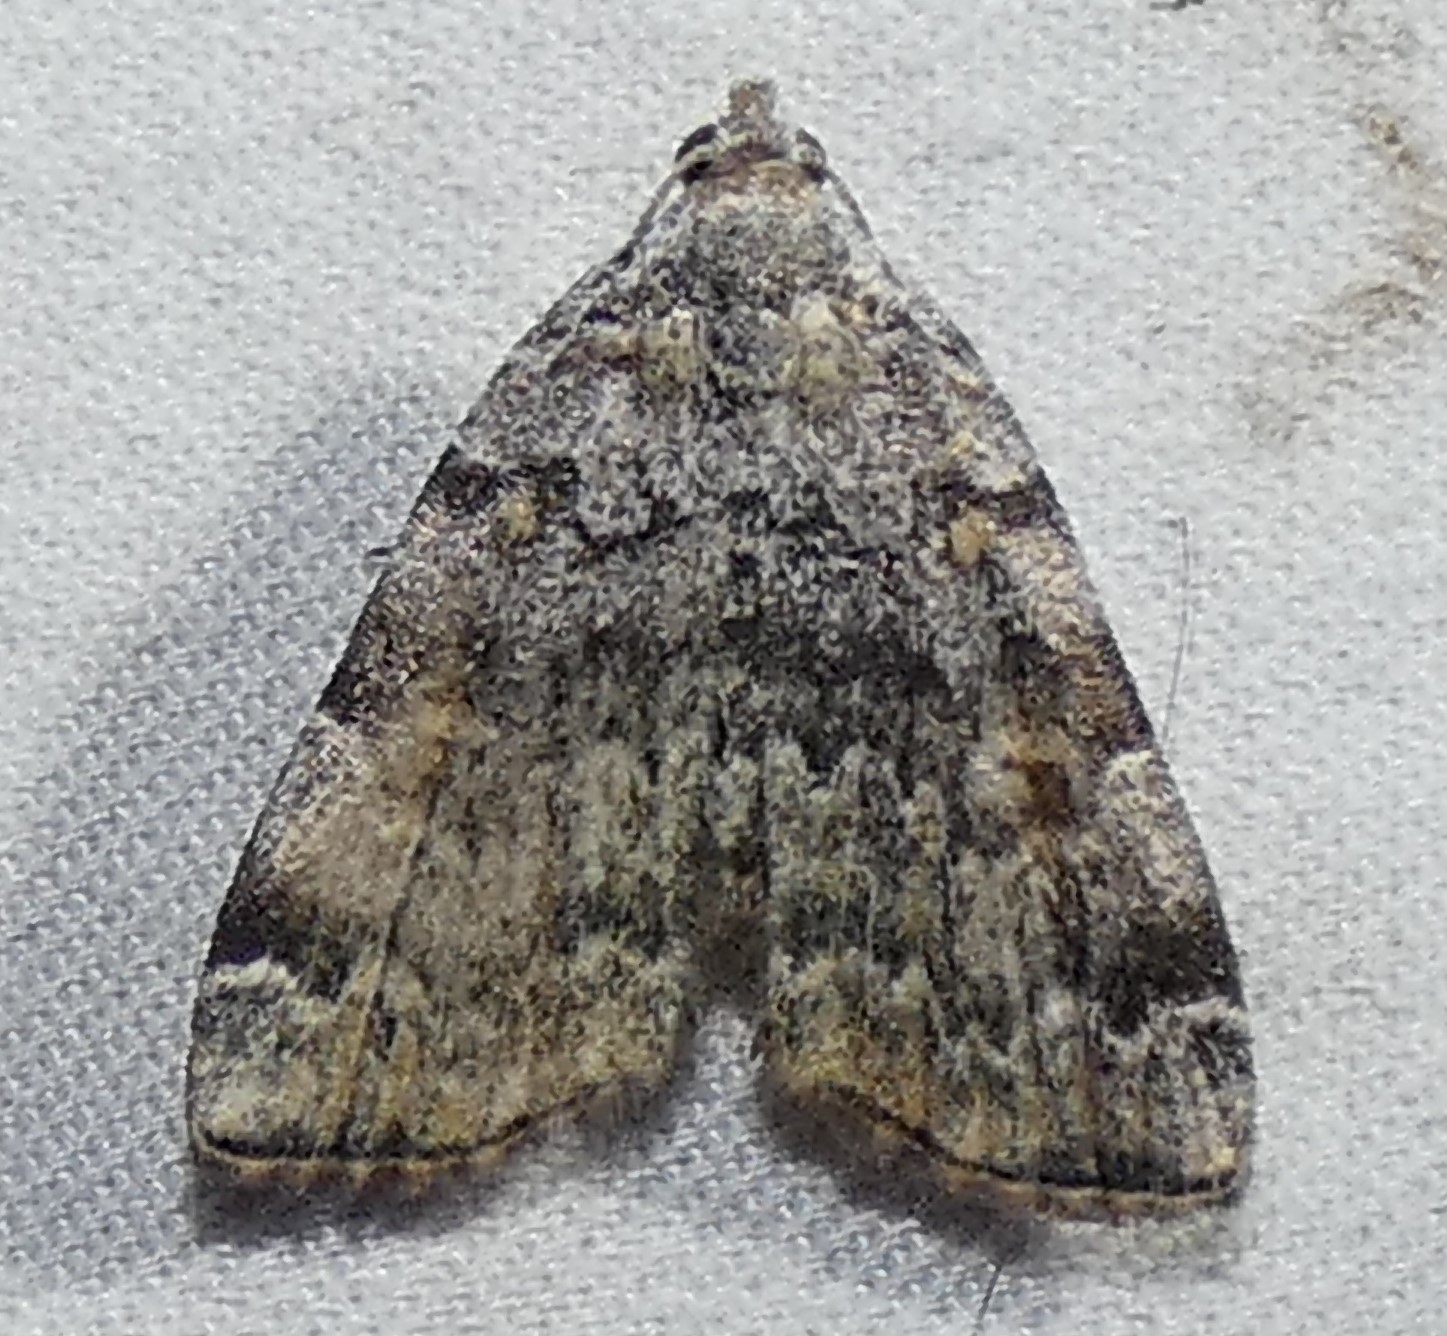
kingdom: Animalia
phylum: Arthropoda
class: Insecta
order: Lepidoptera
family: Erebidae
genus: Idia
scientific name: Idia americalis
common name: American idia moth
